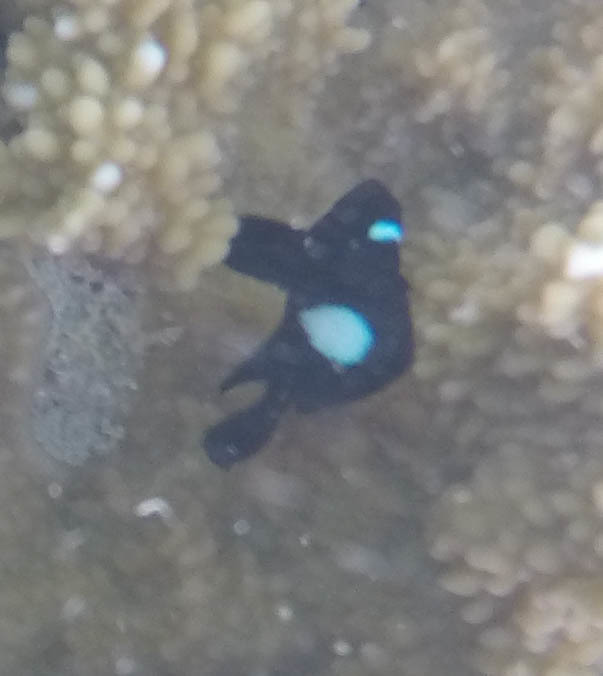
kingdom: Animalia
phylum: Chordata
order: Perciformes
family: Pomacentridae
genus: Dascyllus
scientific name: Dascyllus albisella
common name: Hawaiian dascyllus
